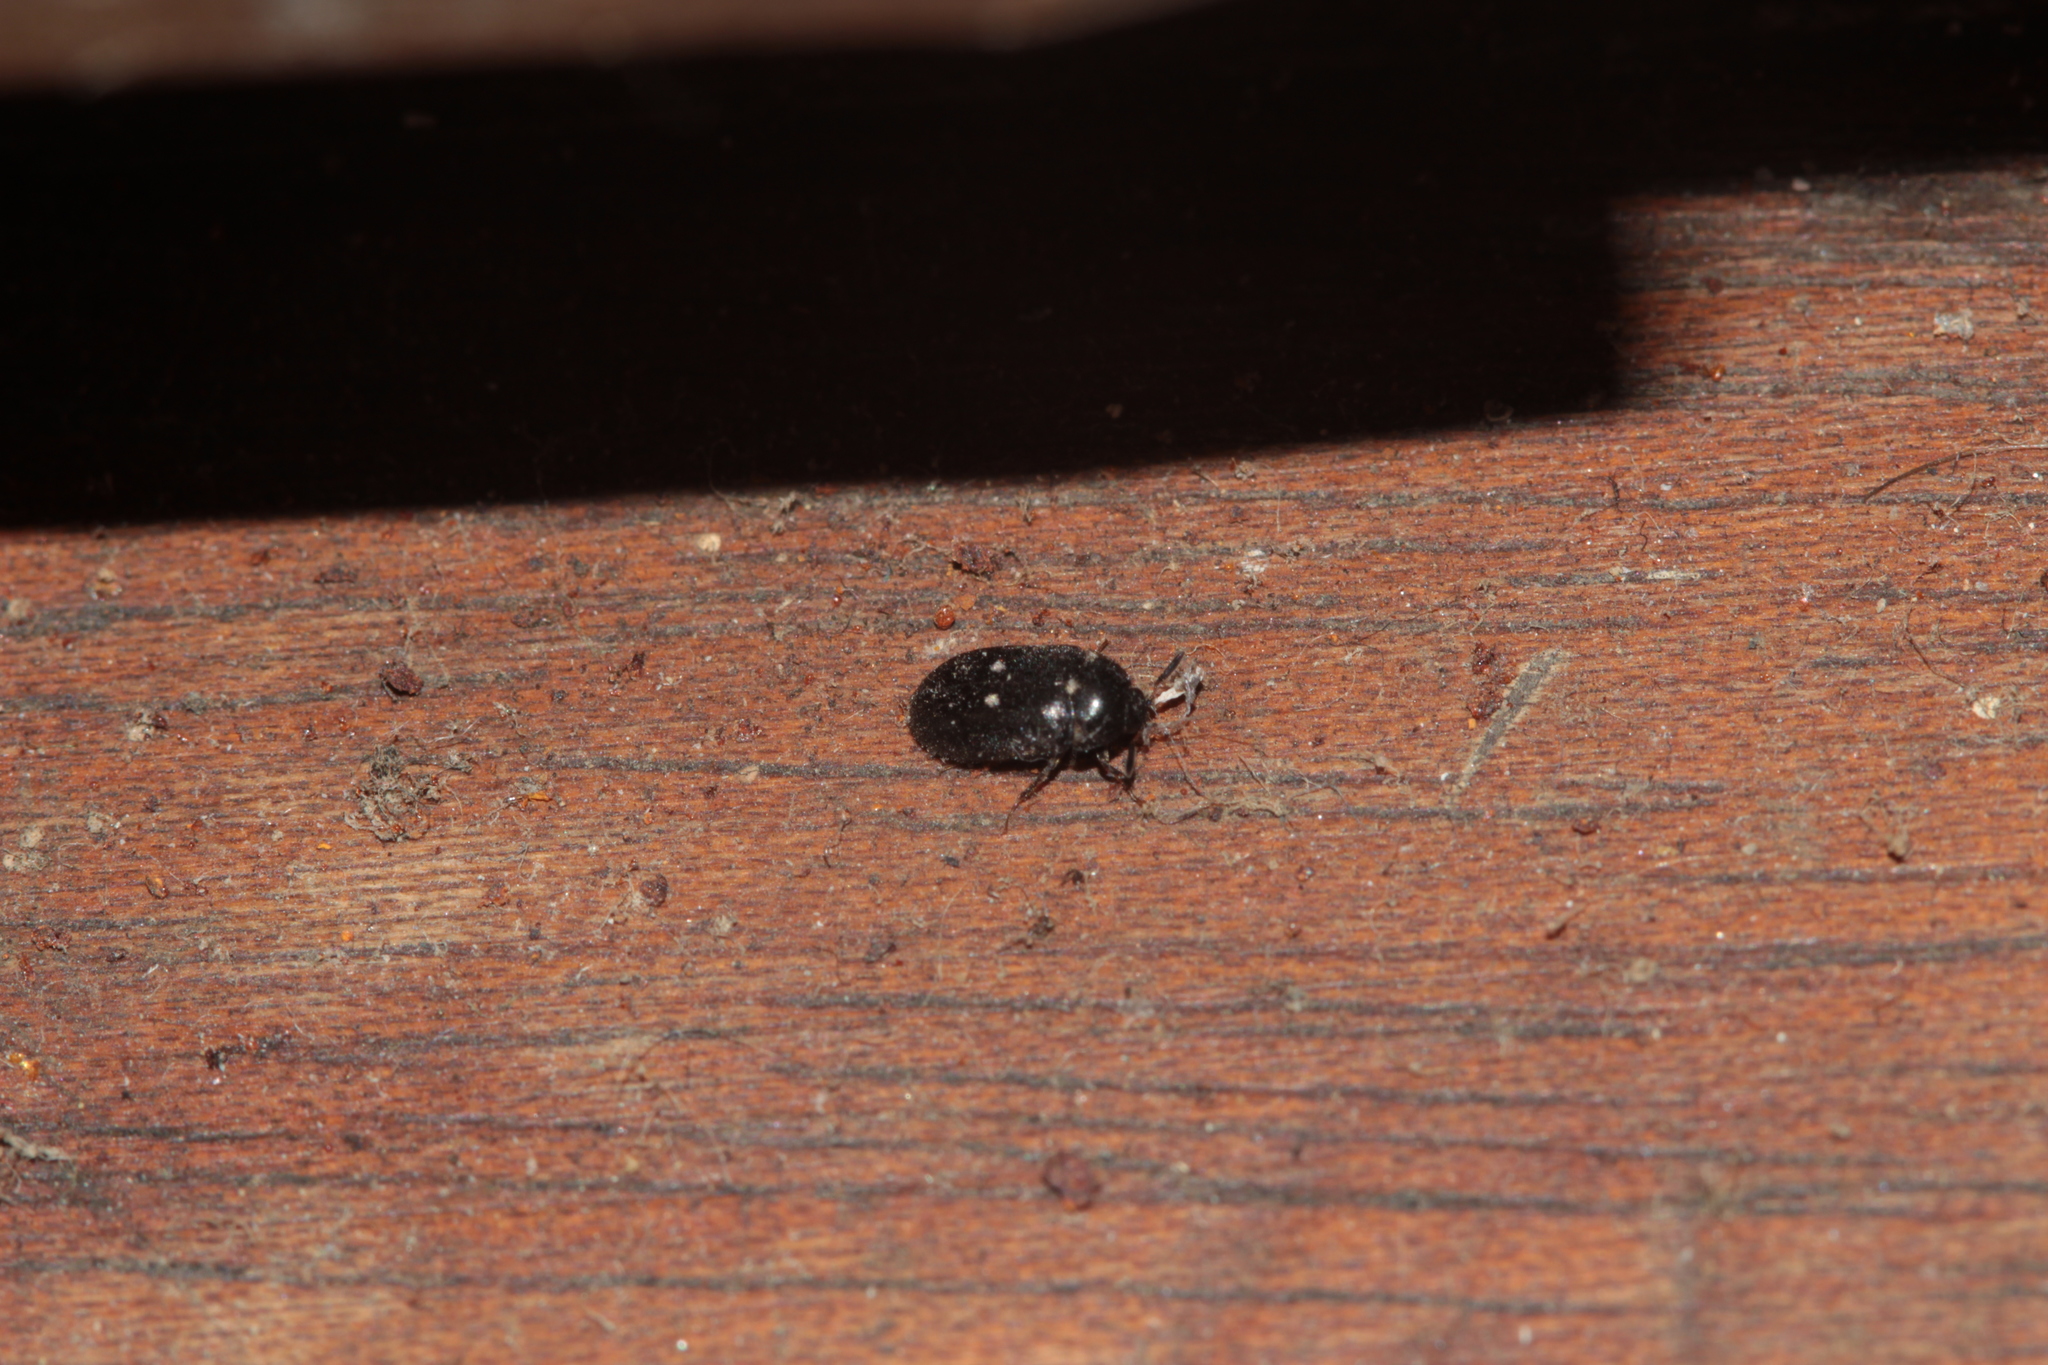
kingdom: Animalia
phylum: Arthropoda
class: Insecta
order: Coleoptera
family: Dermestidae
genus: Attagenus
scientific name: Attagenus pellio
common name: Two-spotted carpet beetle
